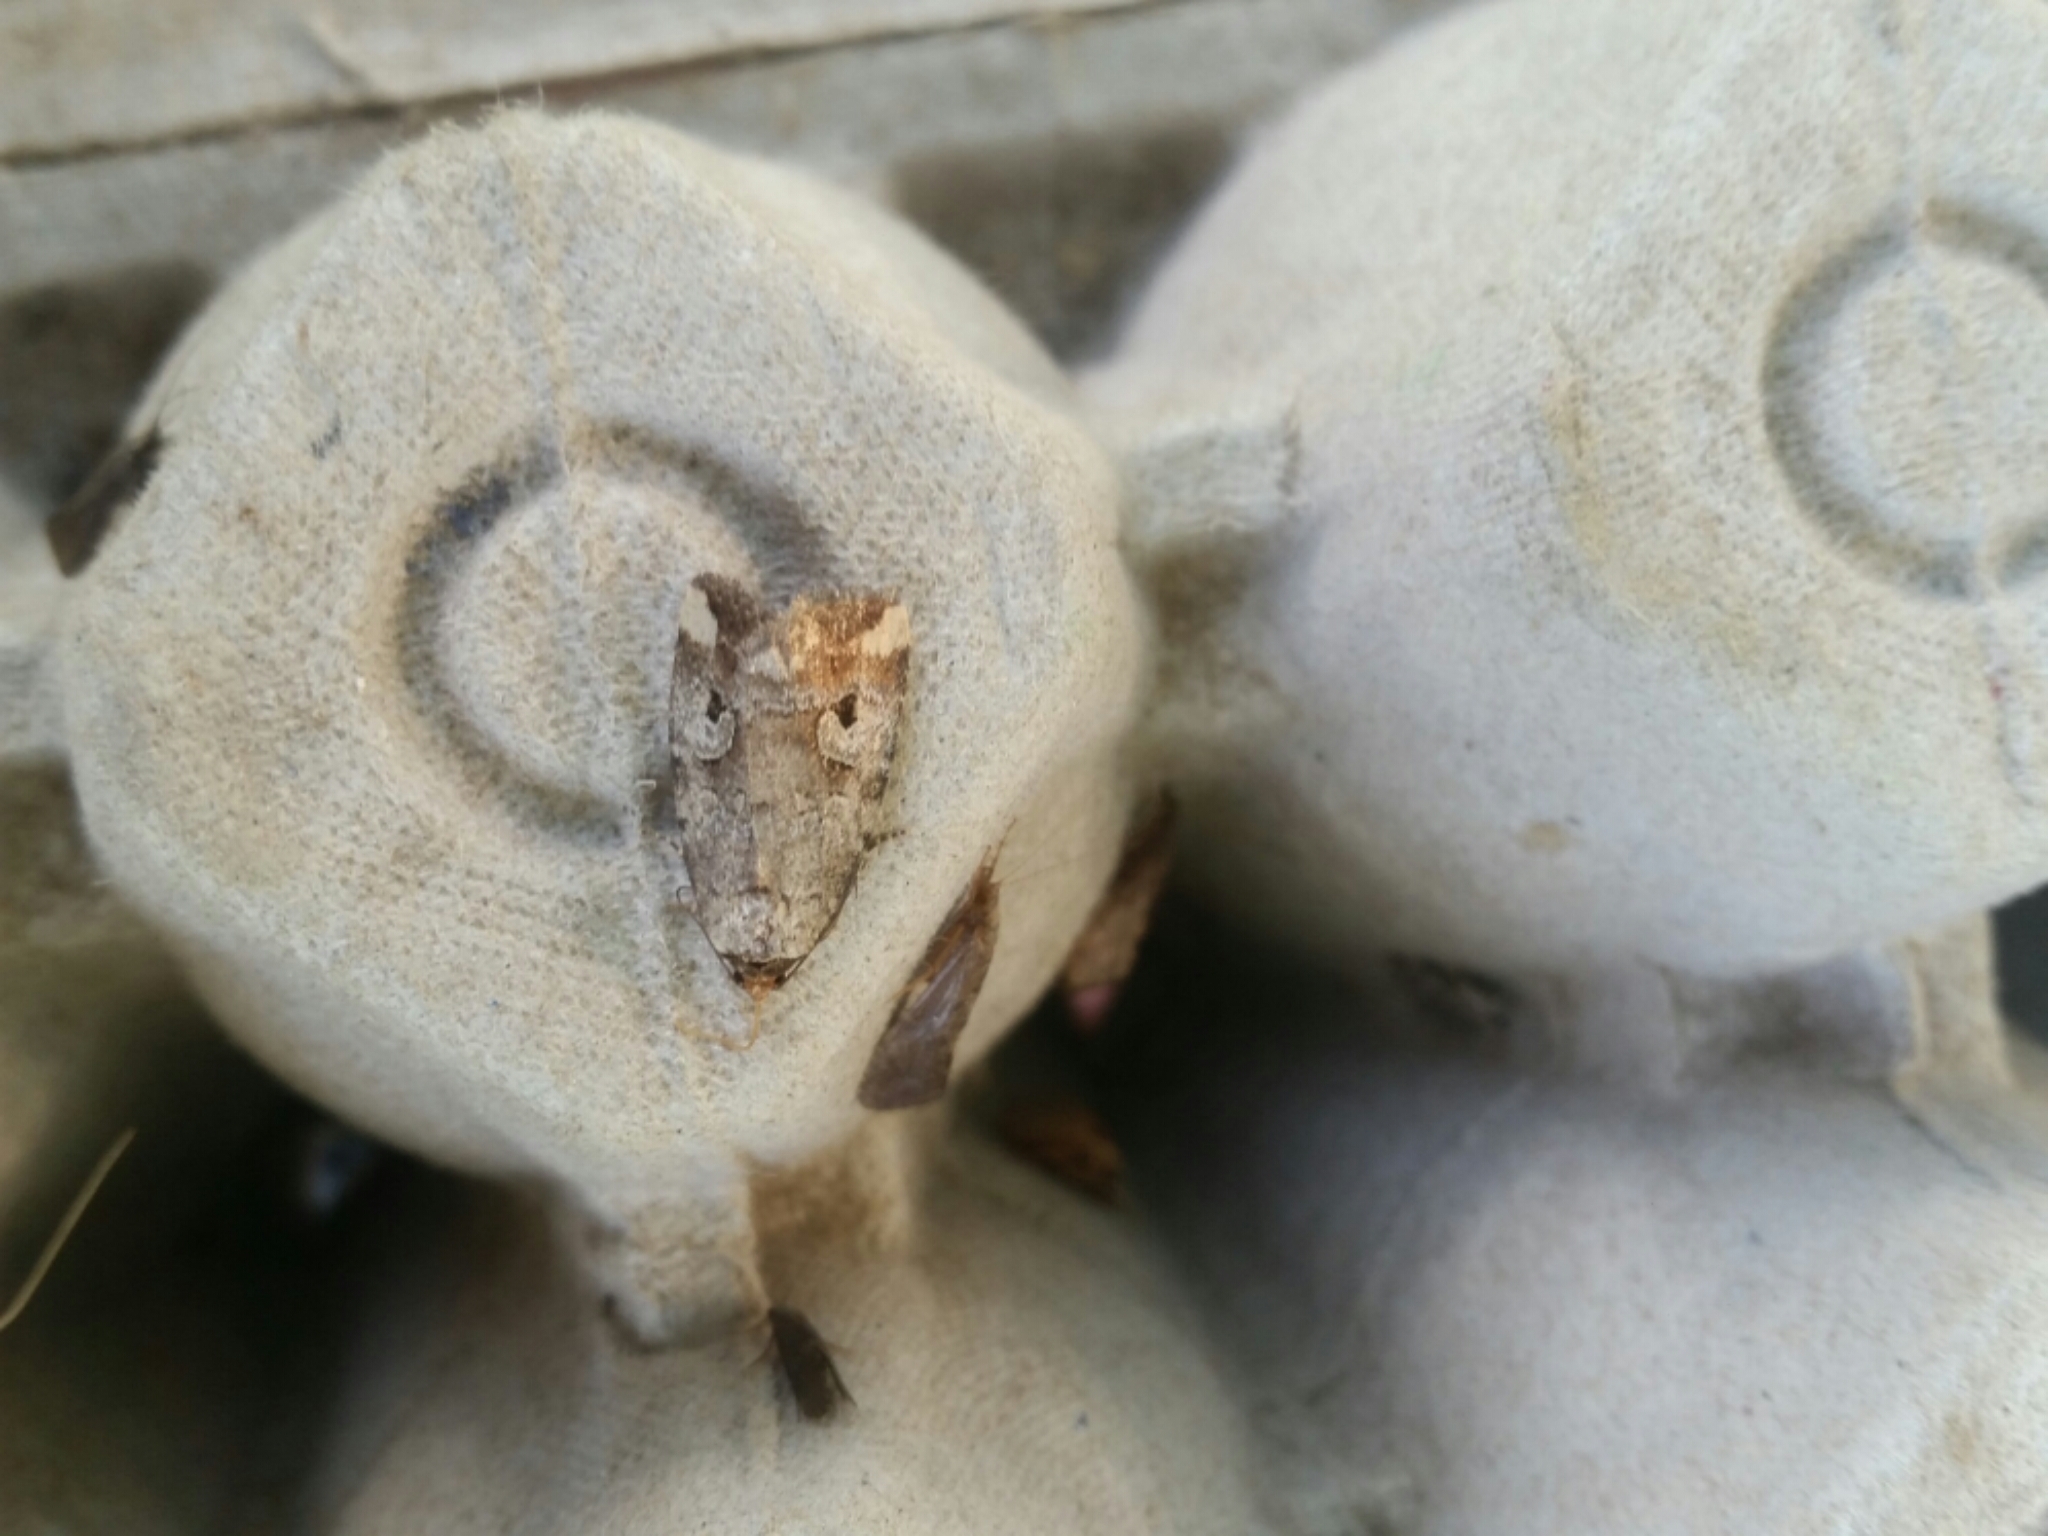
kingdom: Animalia
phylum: Arthropoda
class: Insecta
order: Lepidoptera
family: Noctuidae
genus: Elaphria
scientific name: Elaphria alapallida
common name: Pale-winged midget
